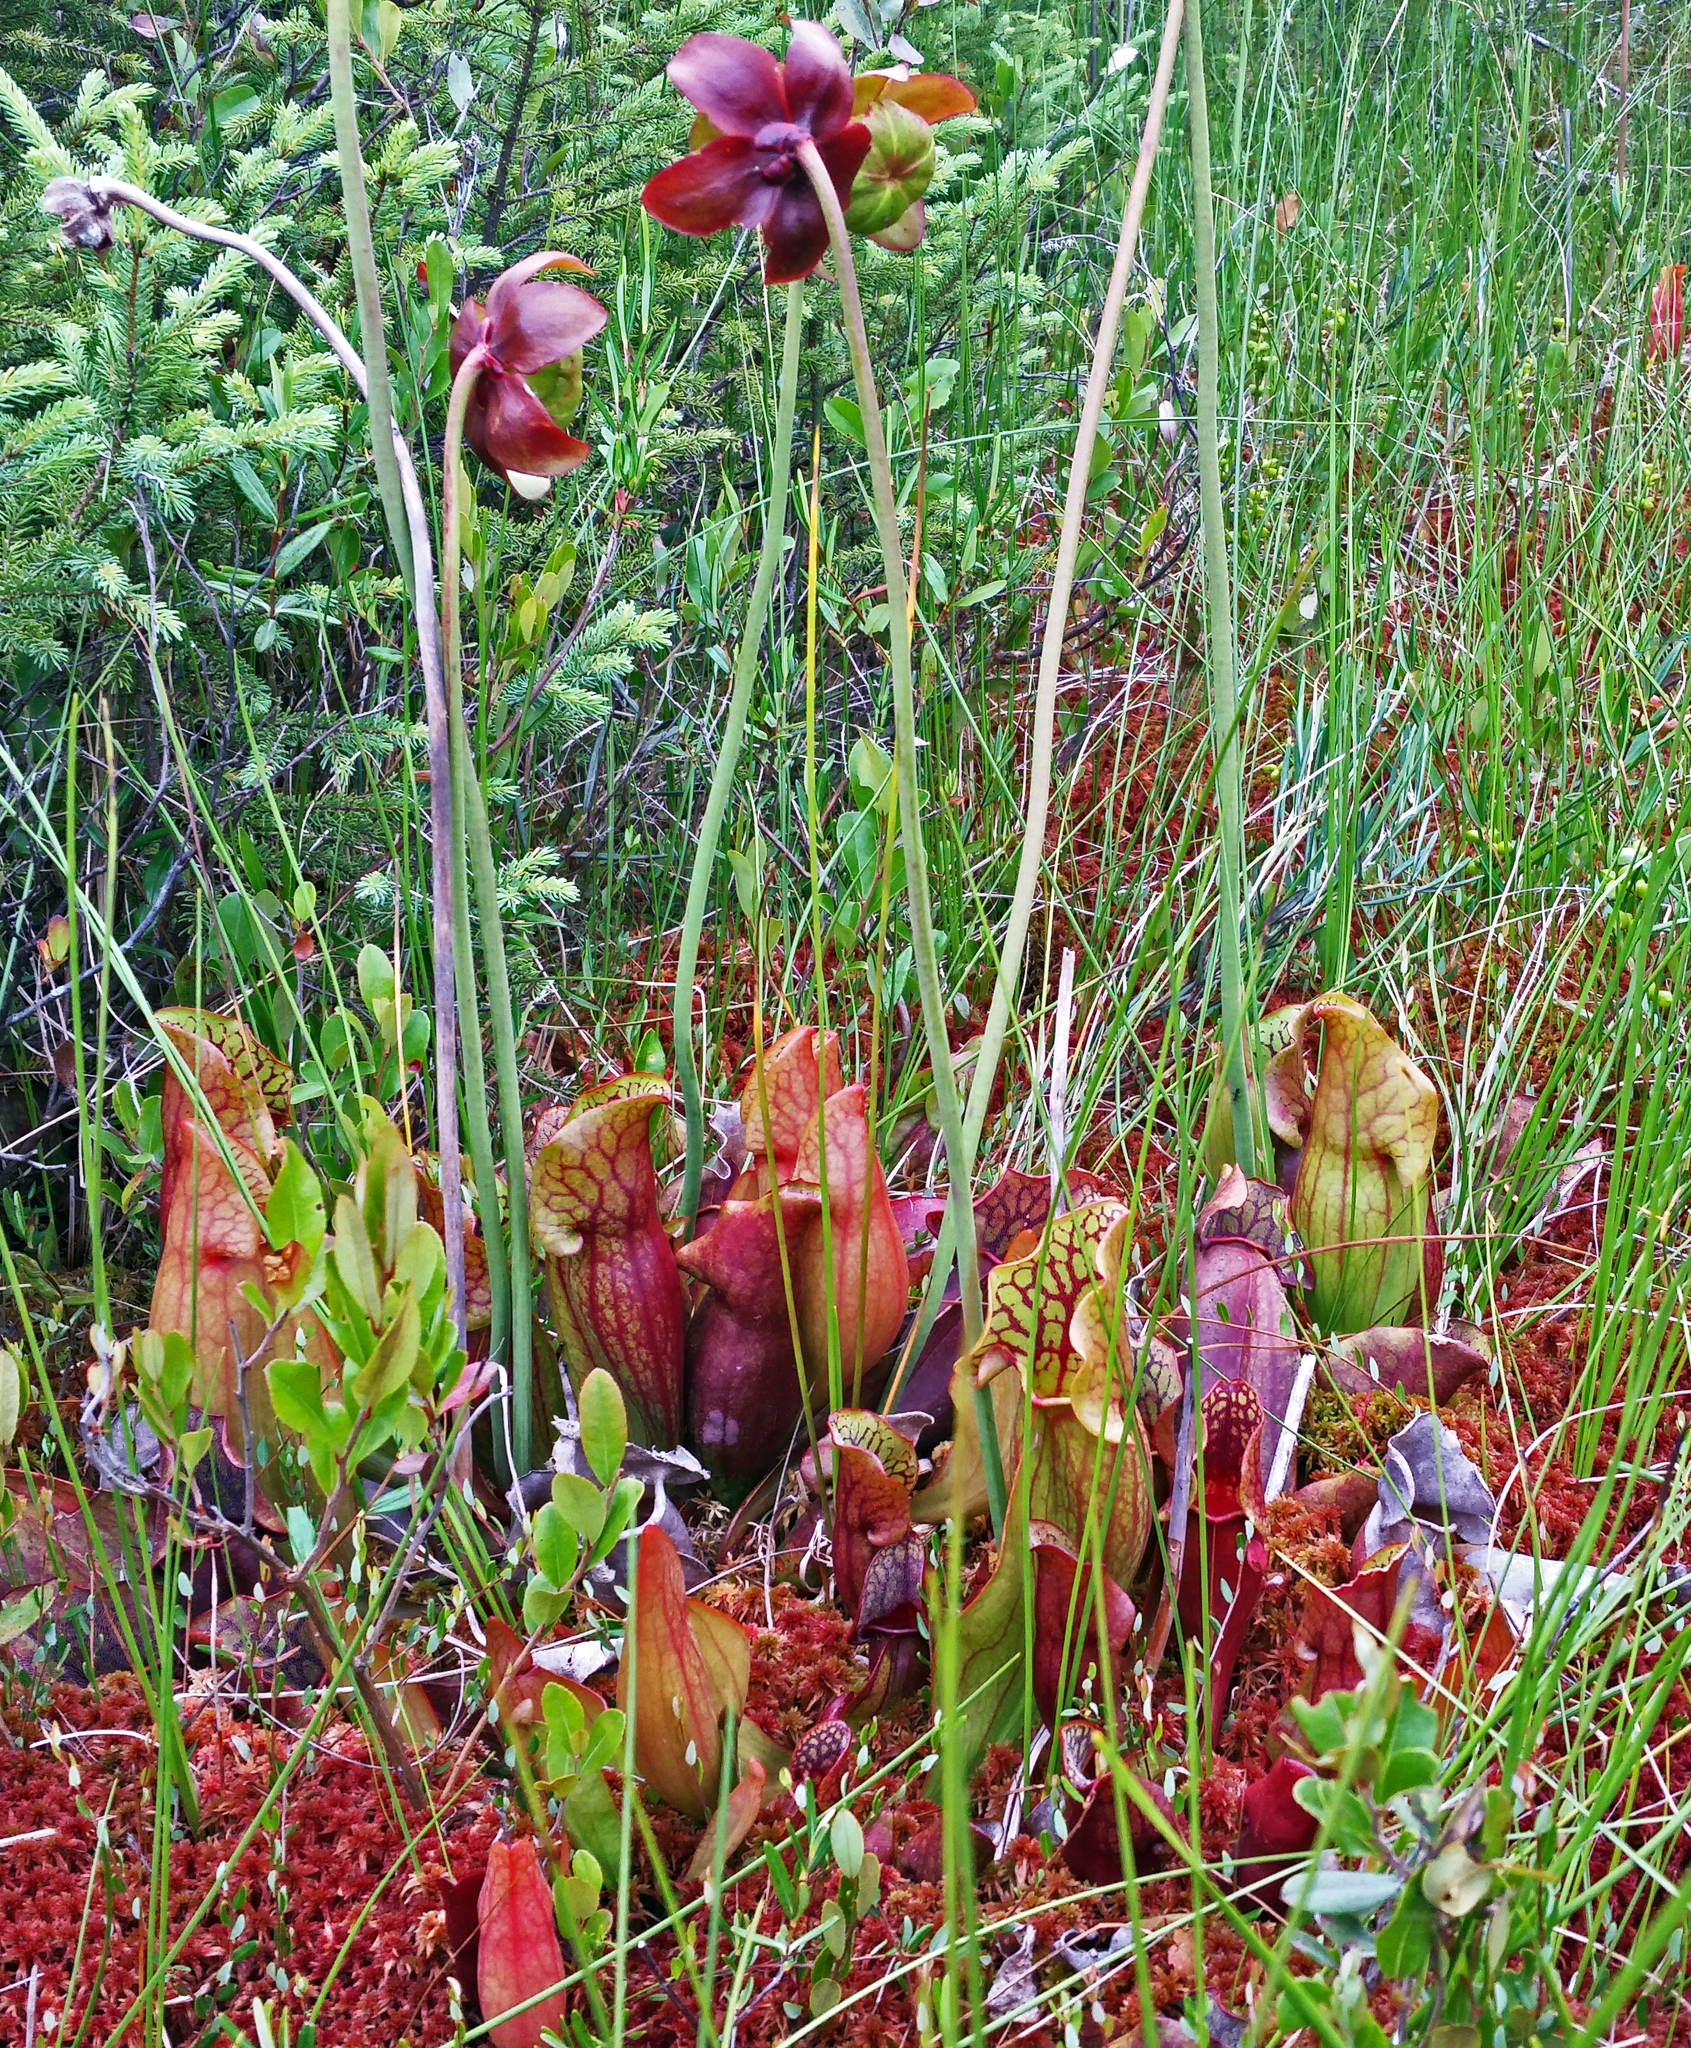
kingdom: Plantae
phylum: Tracheophyta
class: Magnoliopsida
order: Ericales
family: Sarraceniaceae
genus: Sarracenia
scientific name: Sarracenia purpurea
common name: Pitcherplant
